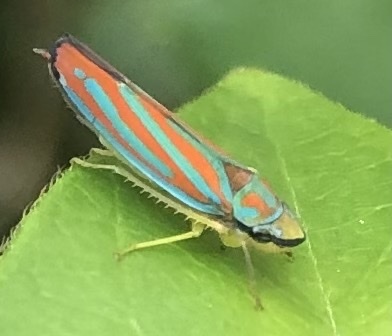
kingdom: Animalia
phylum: Arthropoda
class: Insecta
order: Hemiptera
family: Cicadellidae
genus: Graphocephala
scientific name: Graphocephala coccinea
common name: Candy-striped leafhopper
